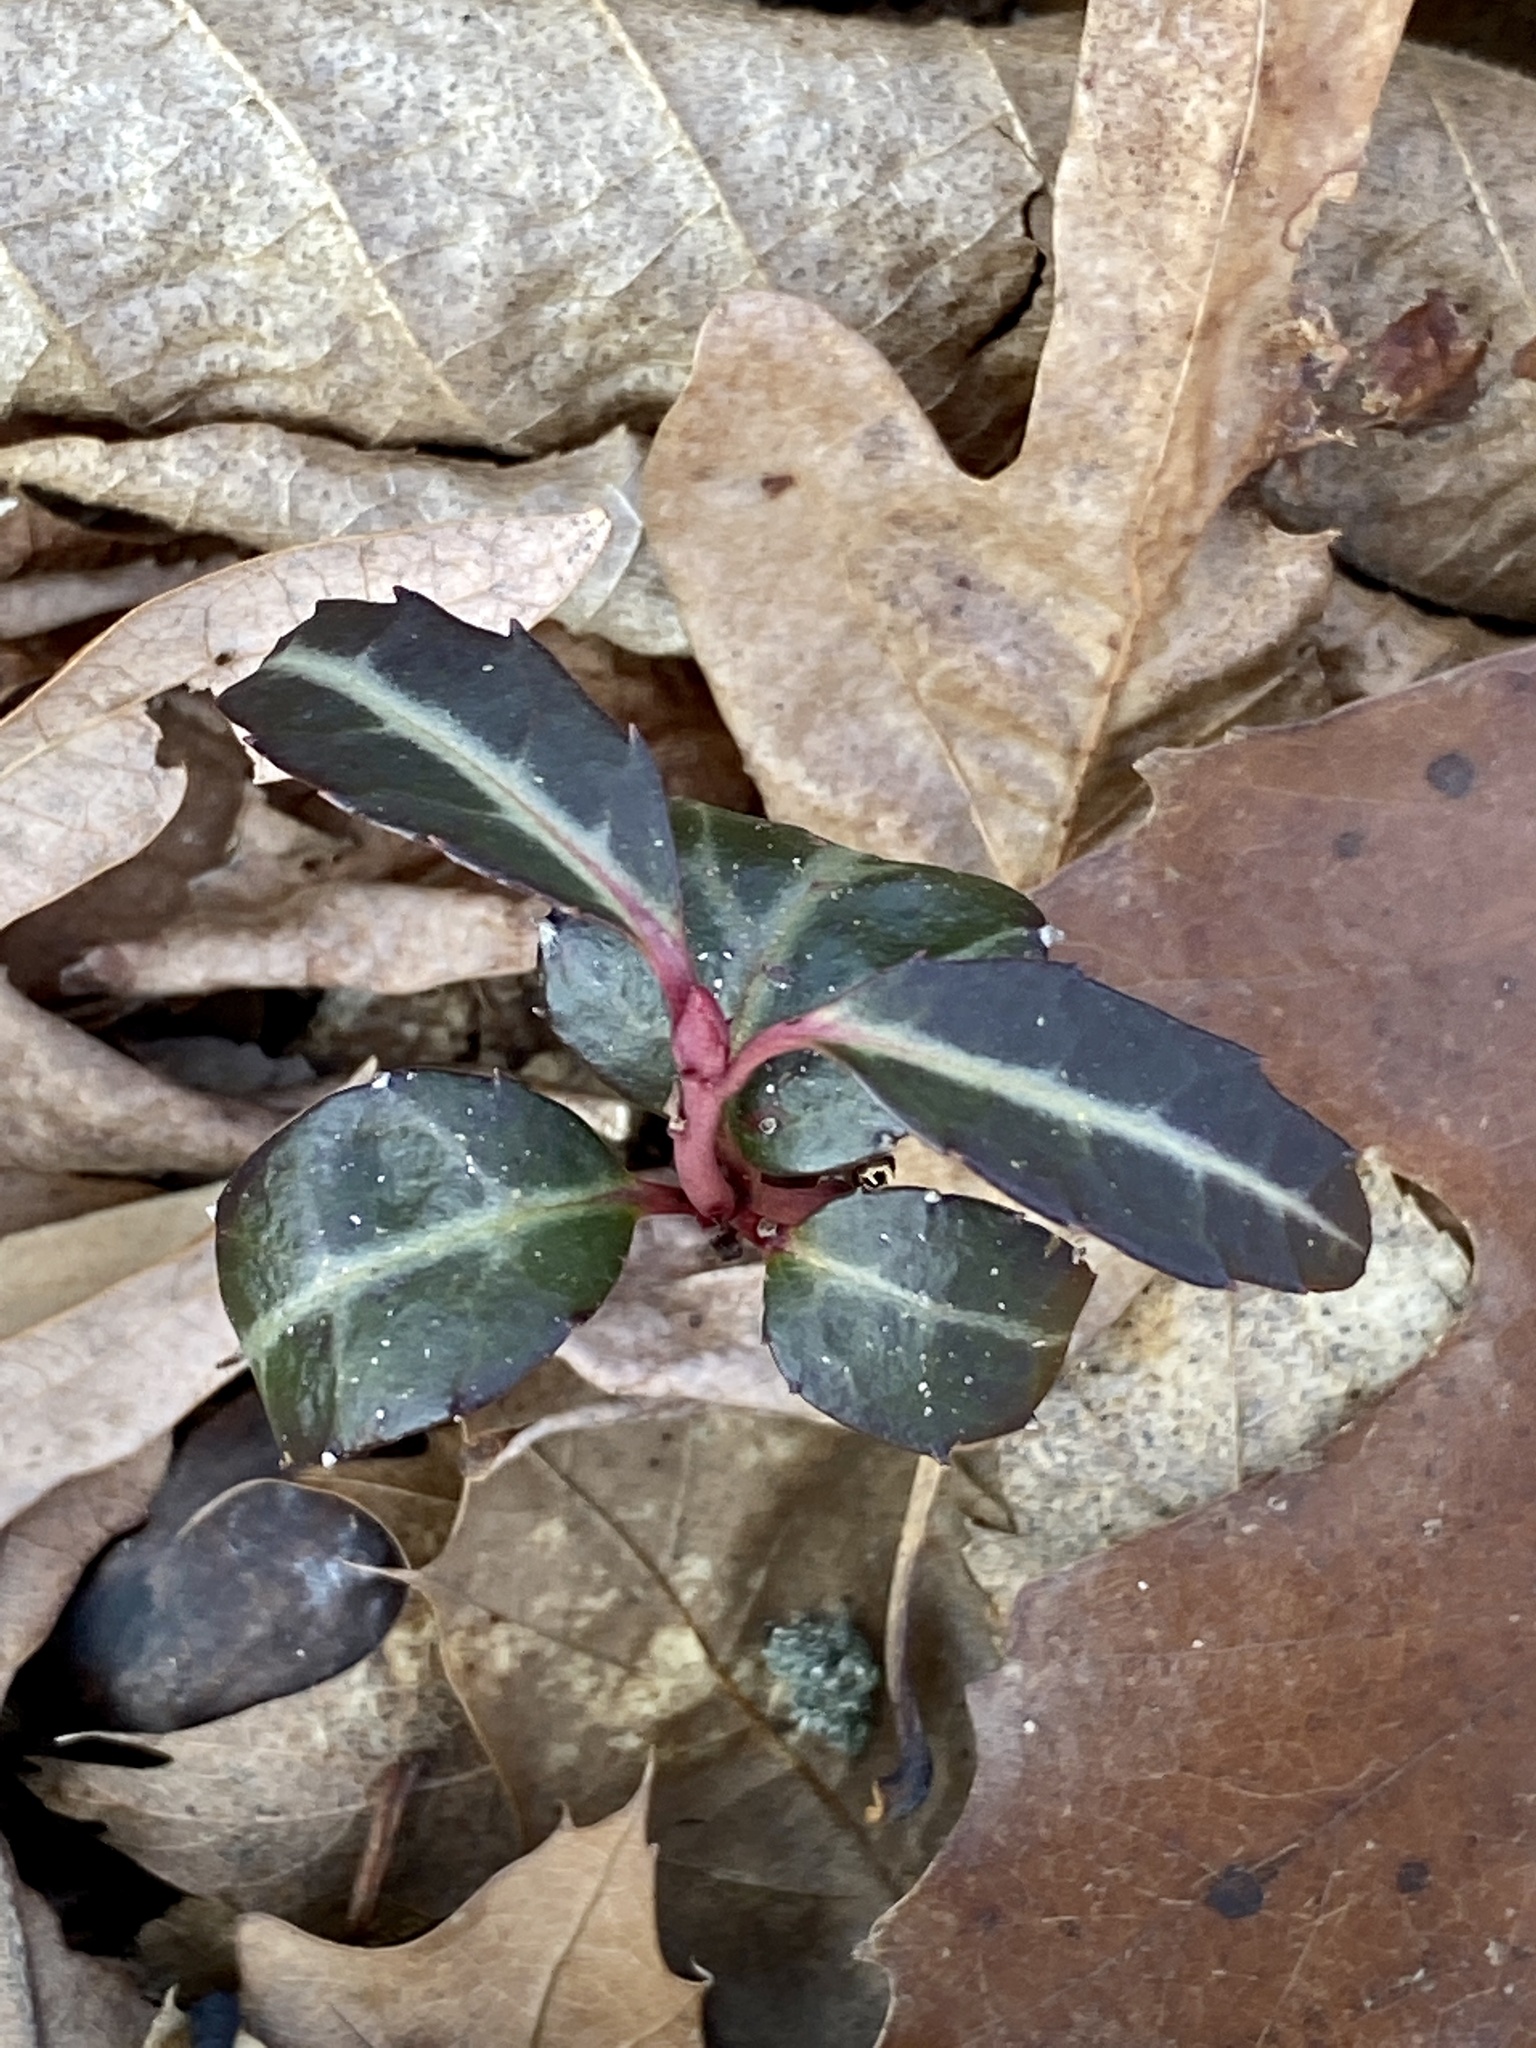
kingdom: Plantae
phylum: Tracheophyta
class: Magnoliopsida
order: Ericales
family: Ericaceae
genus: Chimaphila
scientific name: Chimaphila maculata
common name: Spotted pipsissewa
